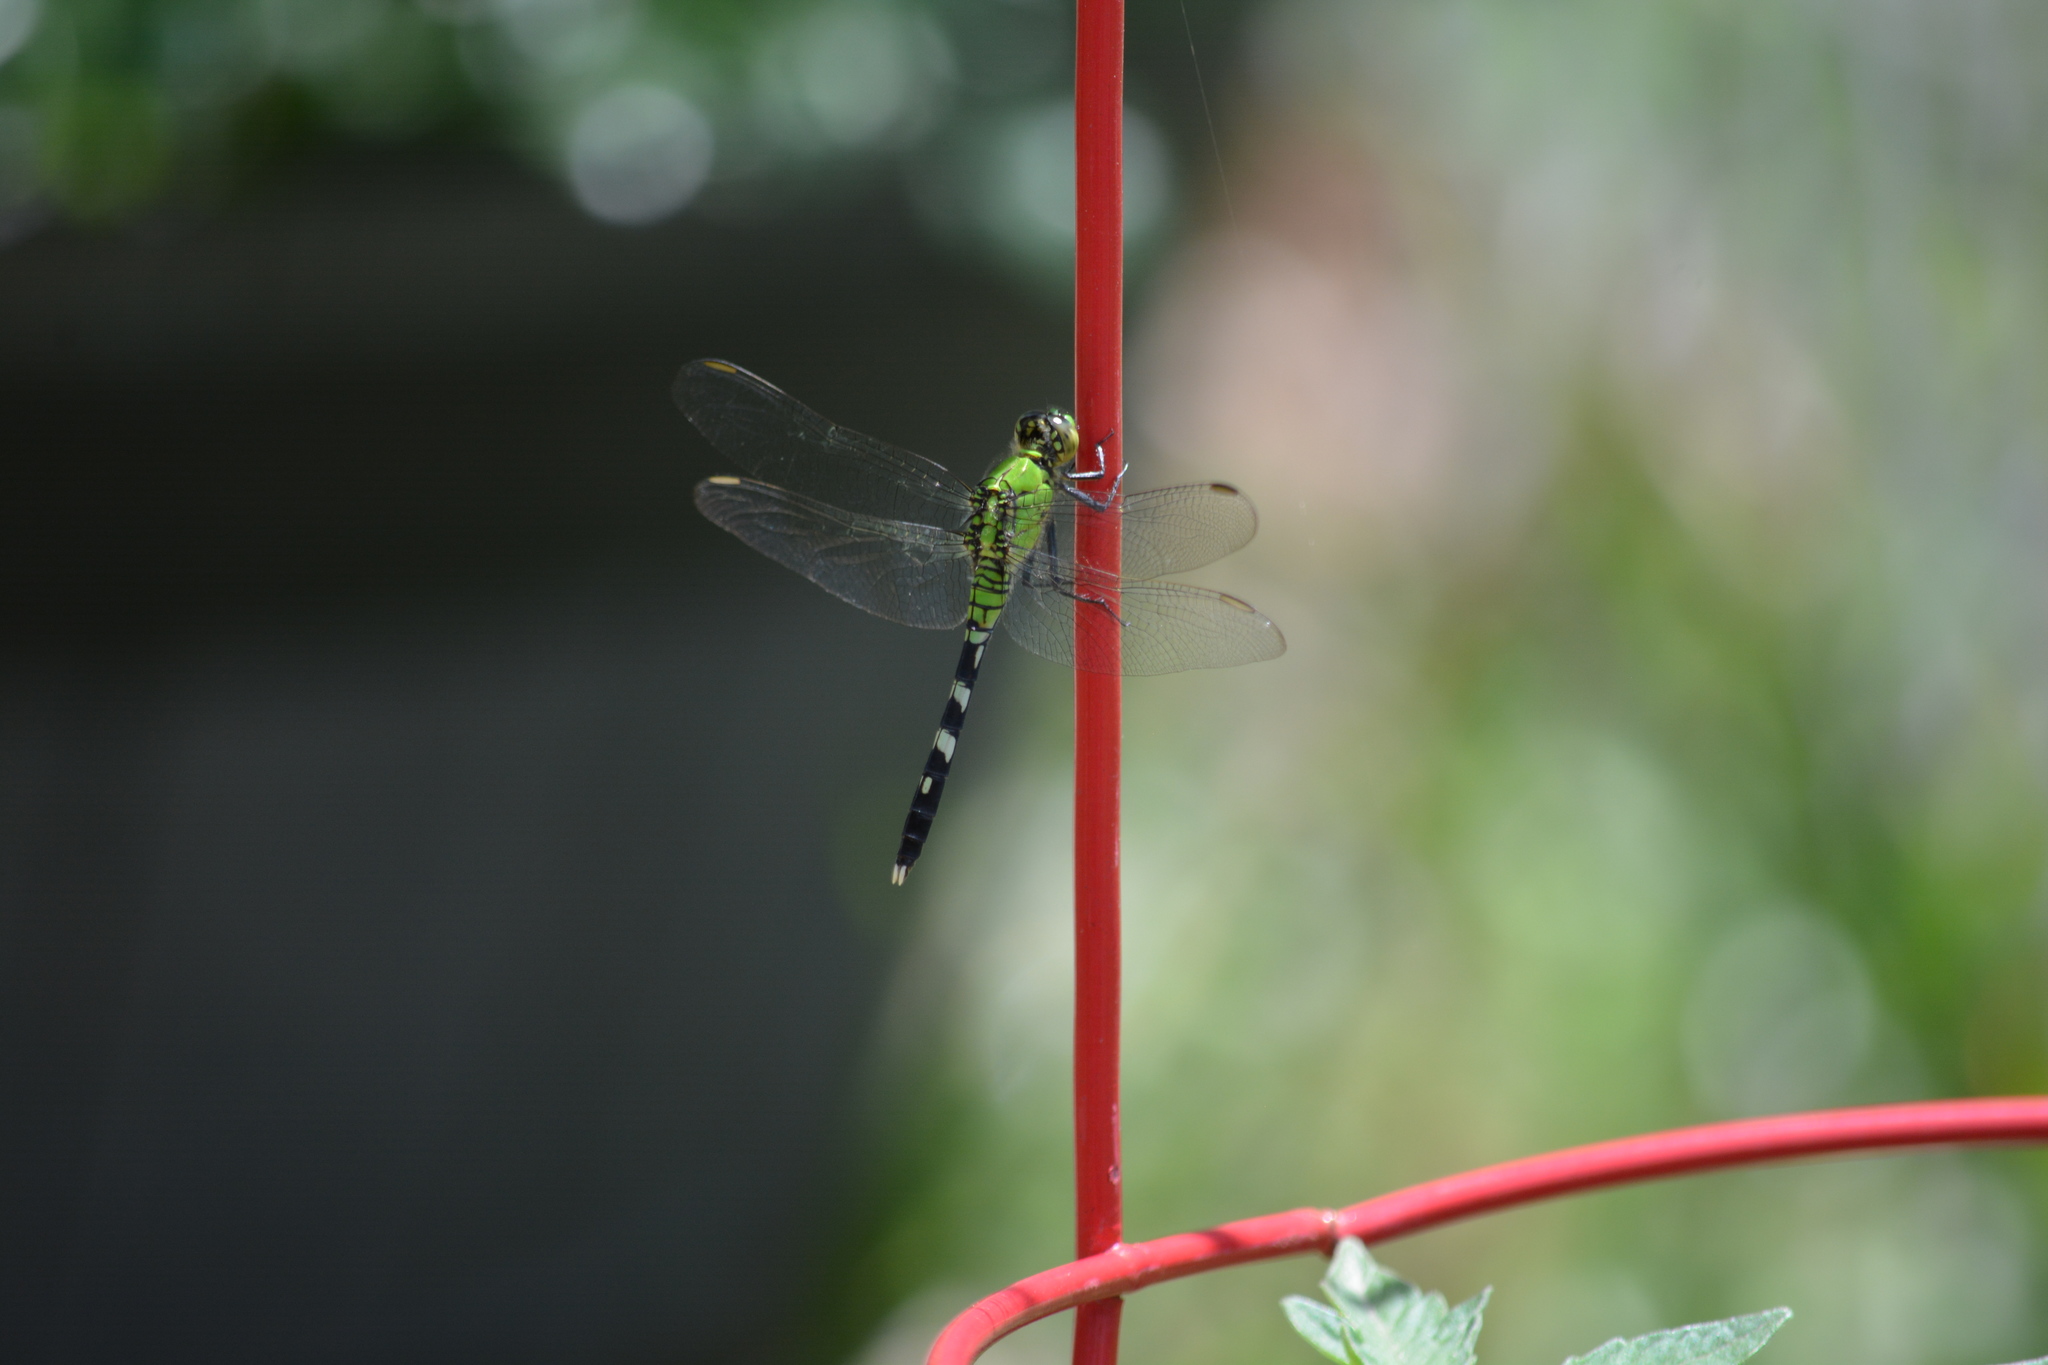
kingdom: Animalia
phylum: Arthropoda
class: Insecta
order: Odonata
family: Libellulidae
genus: Erythemis
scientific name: Erythemis simplicicollis
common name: Eastern pondhawk
